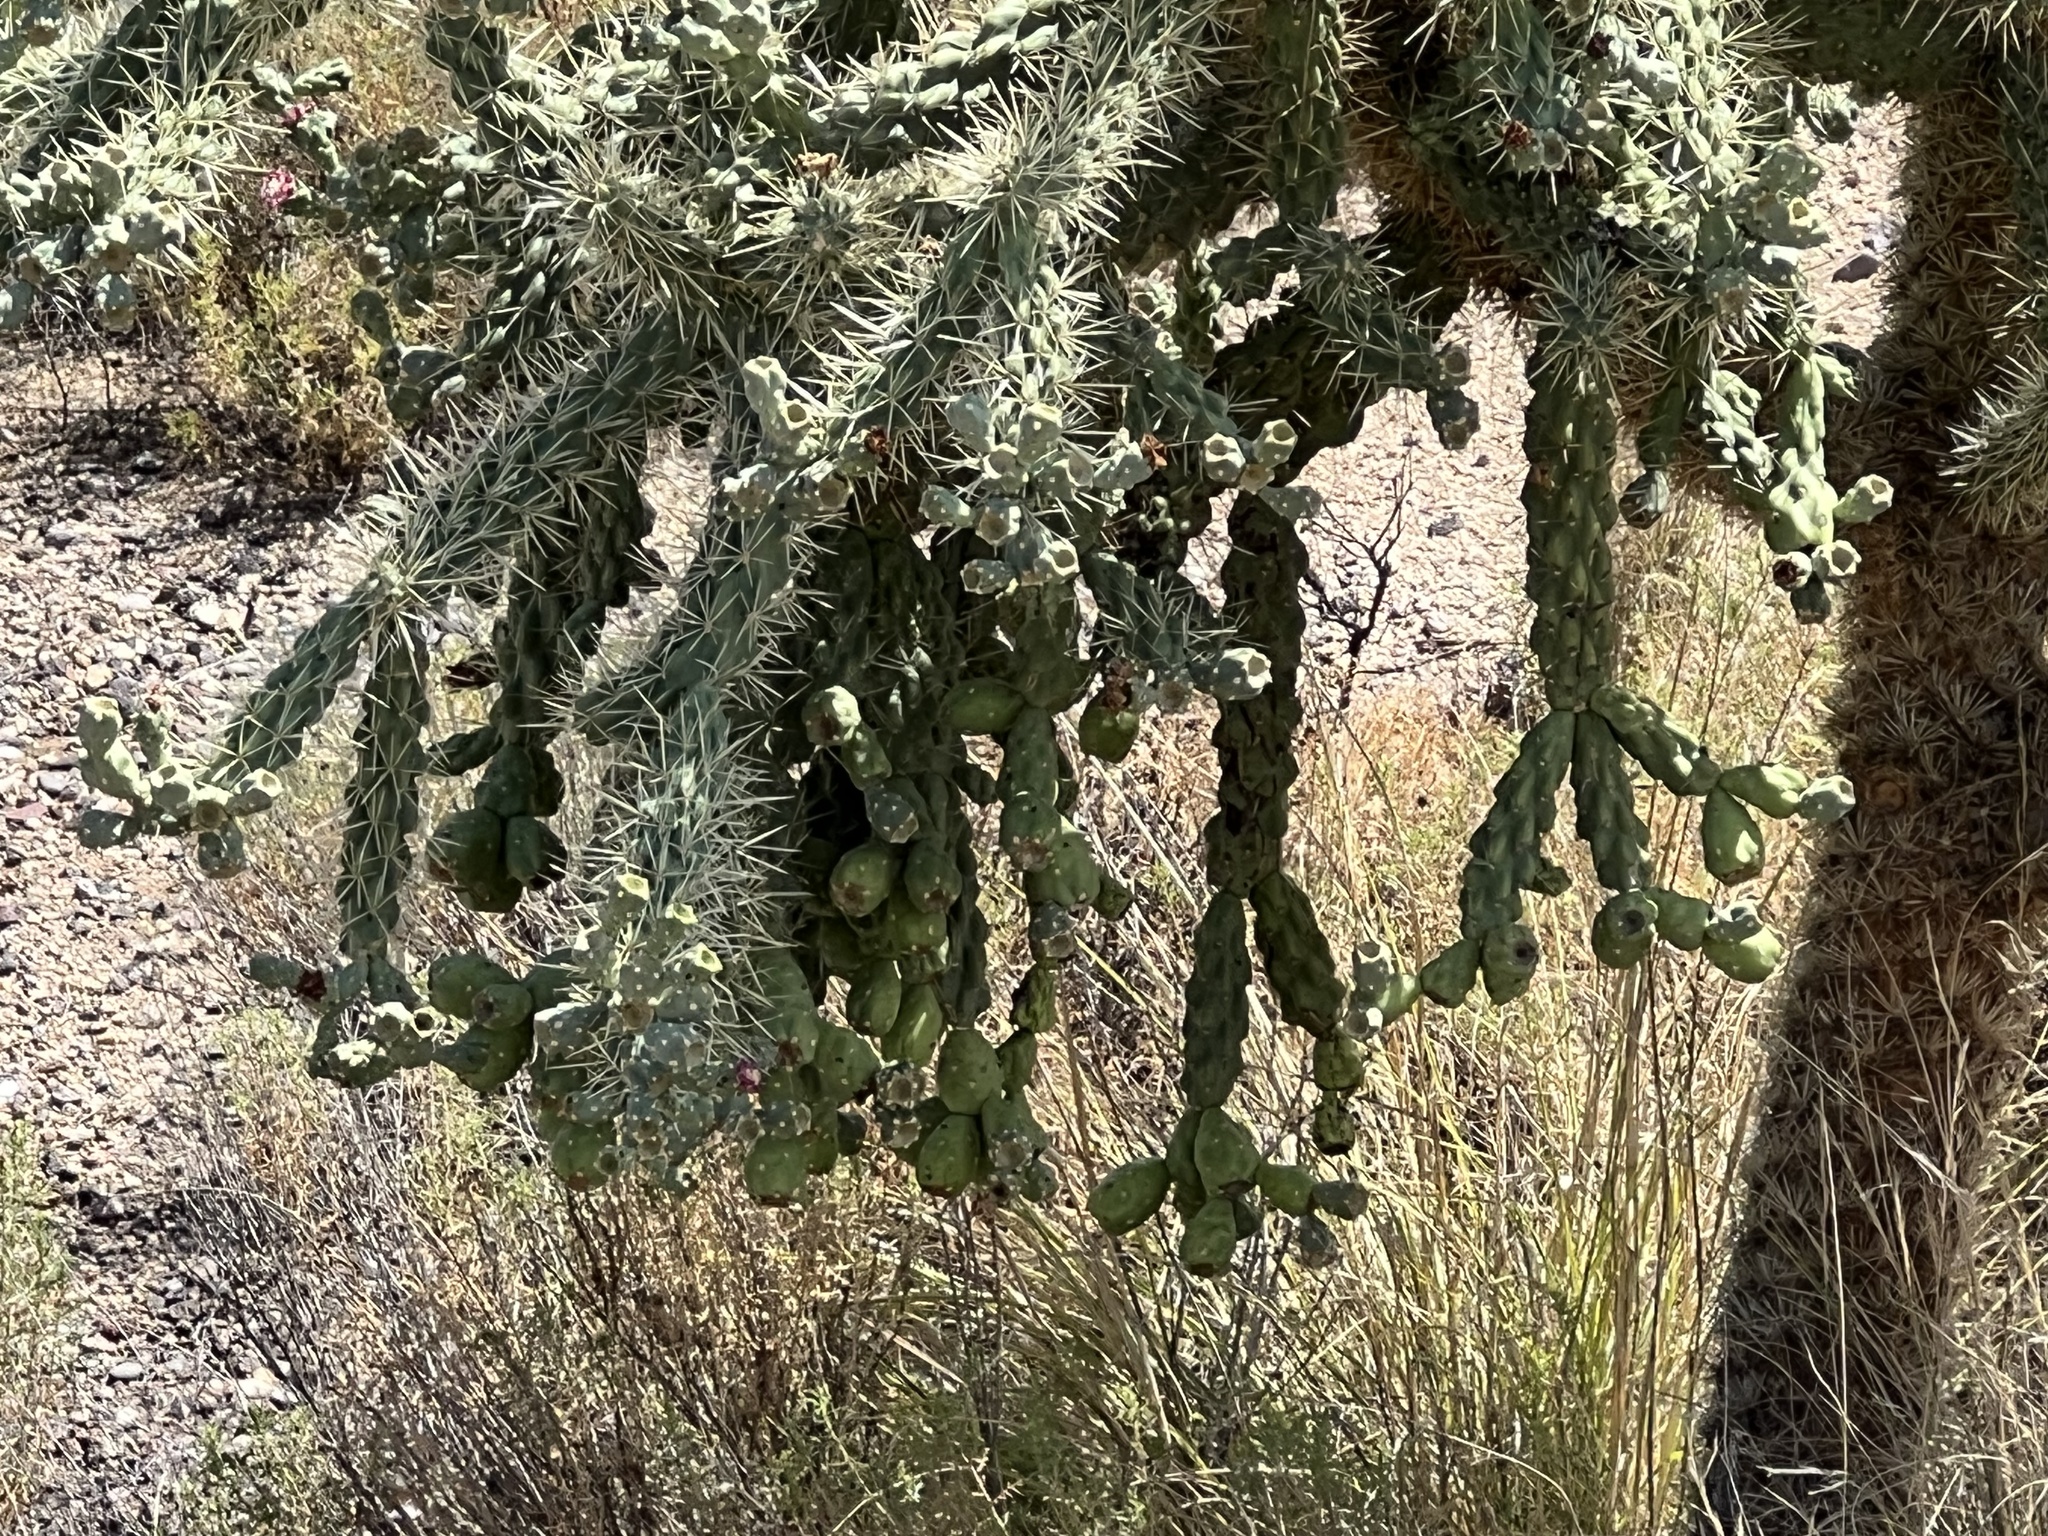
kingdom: Plantae
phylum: Tracheophyta
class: Magnoliopsida
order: Caryophyllales
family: Cactaceae
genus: Cylindropuntia
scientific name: Cylindropuntia fulgida
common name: Jumping cholla
